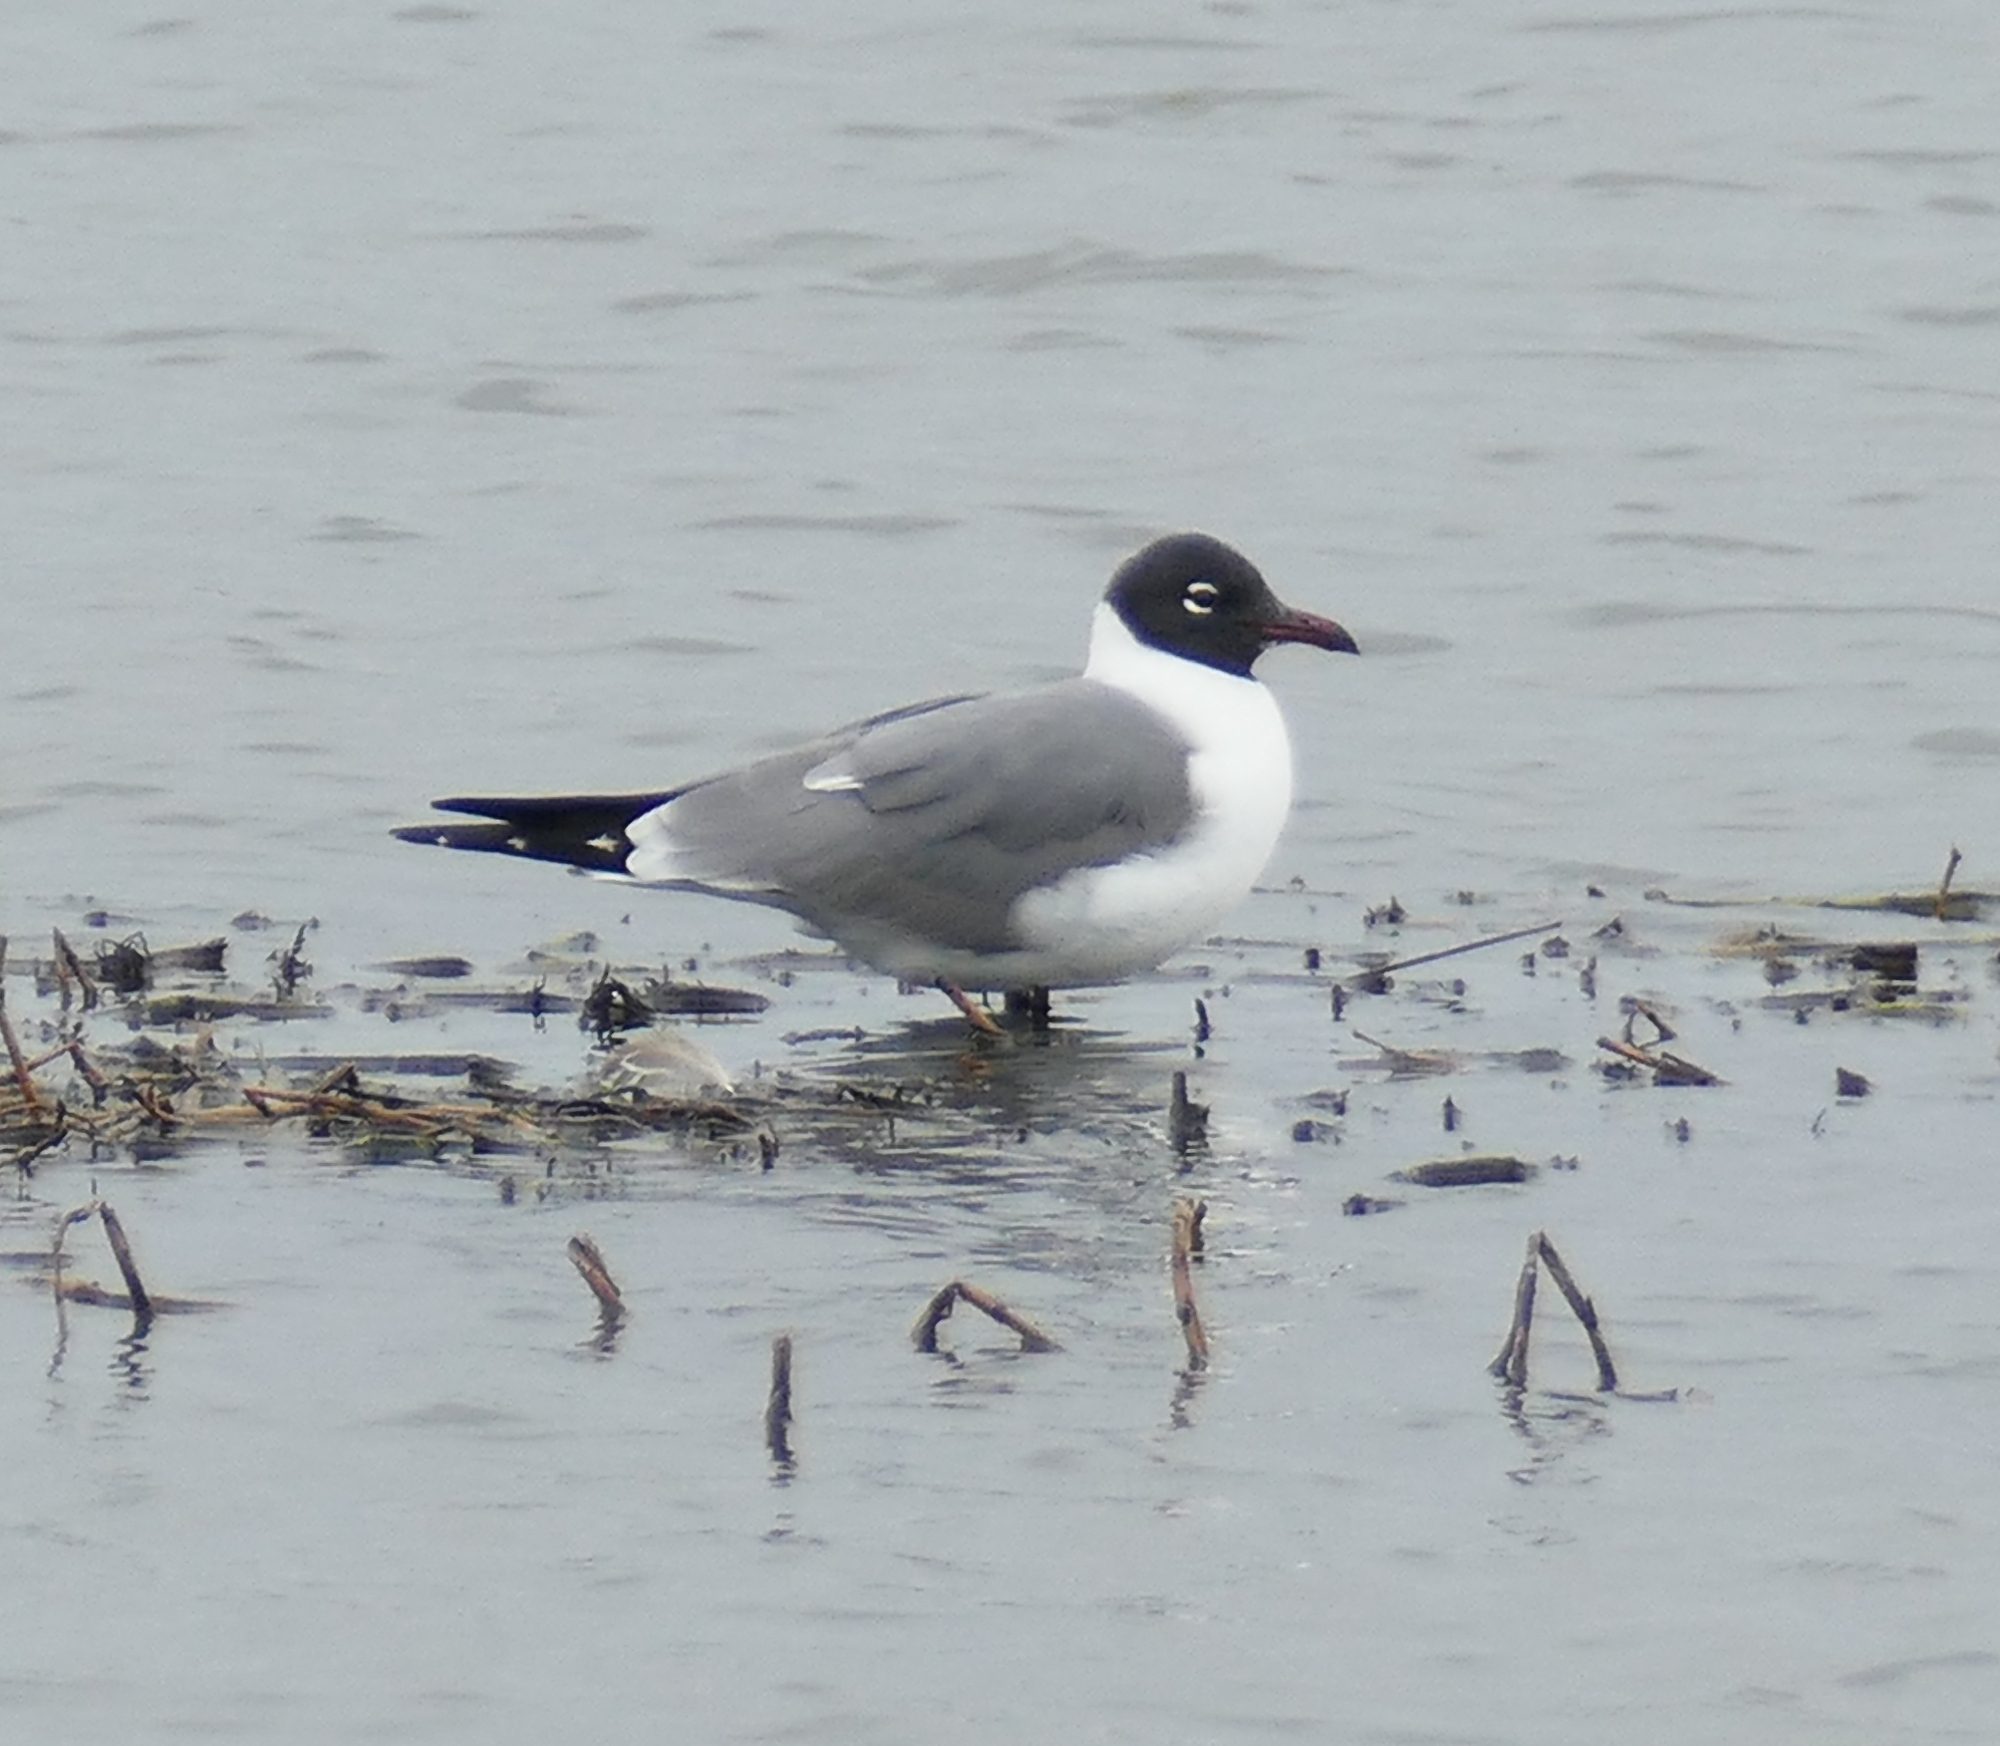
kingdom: Animalia
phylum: Chordata
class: Aves
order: Charadriiformes
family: Laridae
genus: Leucophaeus
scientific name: Leucophaeus atricilla
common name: Laughing gull
